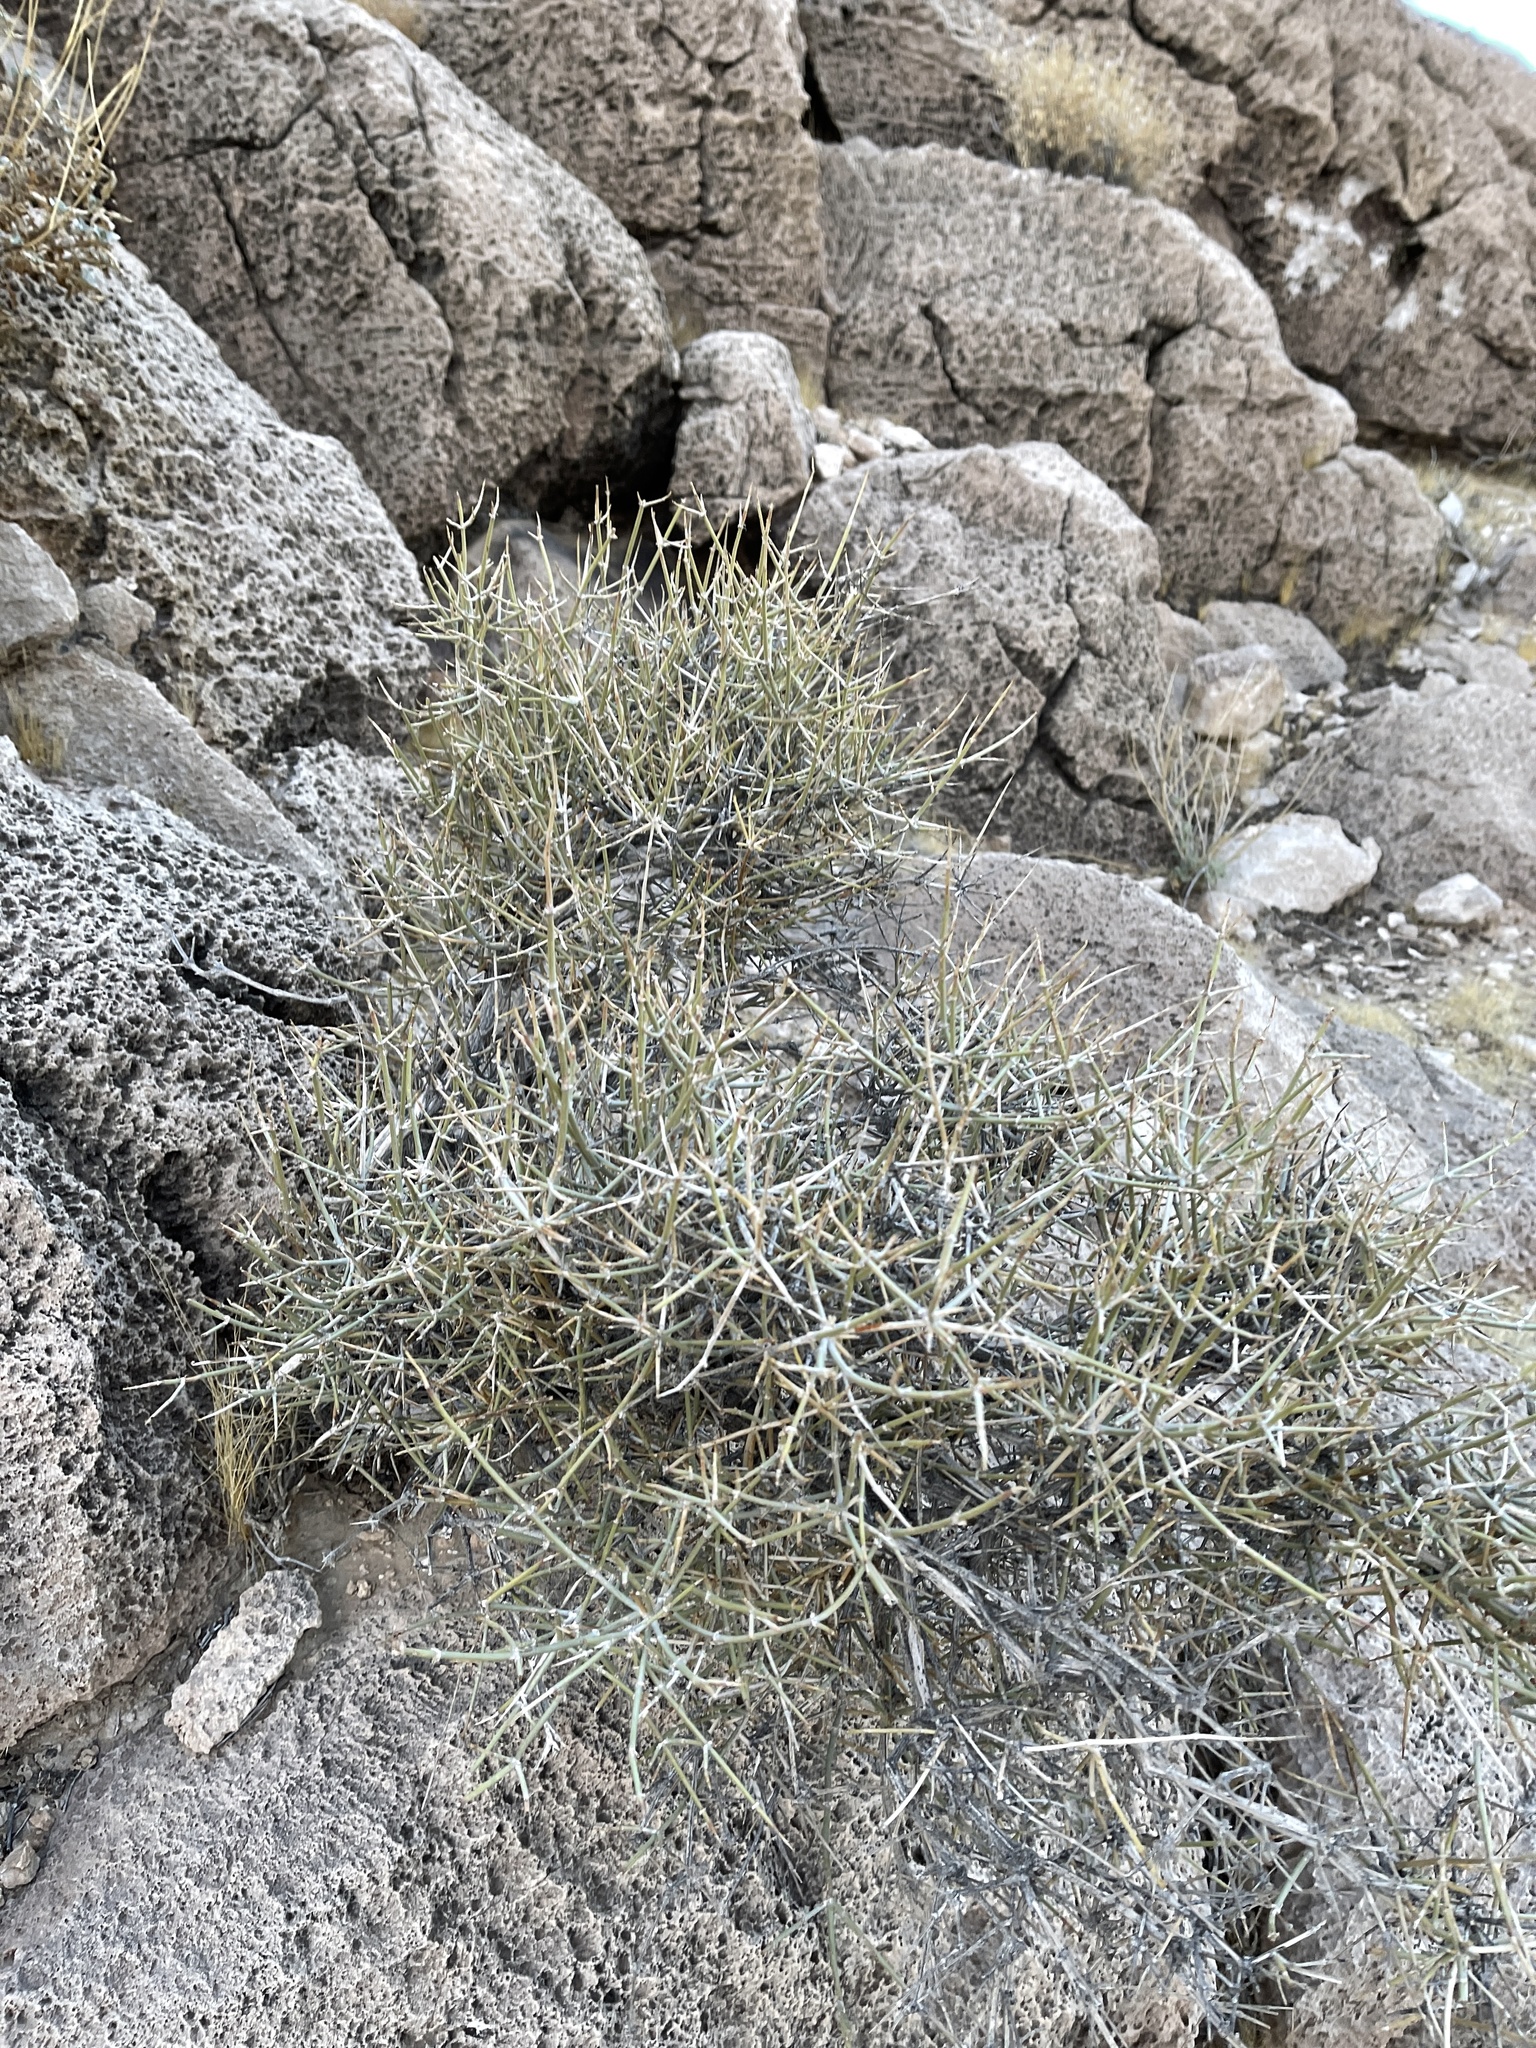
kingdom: Plantae
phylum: Tracheophyta
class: Gnetopsida
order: Ephedrales
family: Ephedraceae
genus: Ephedra
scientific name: Ephedra nevadensis
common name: Gray ephedra
